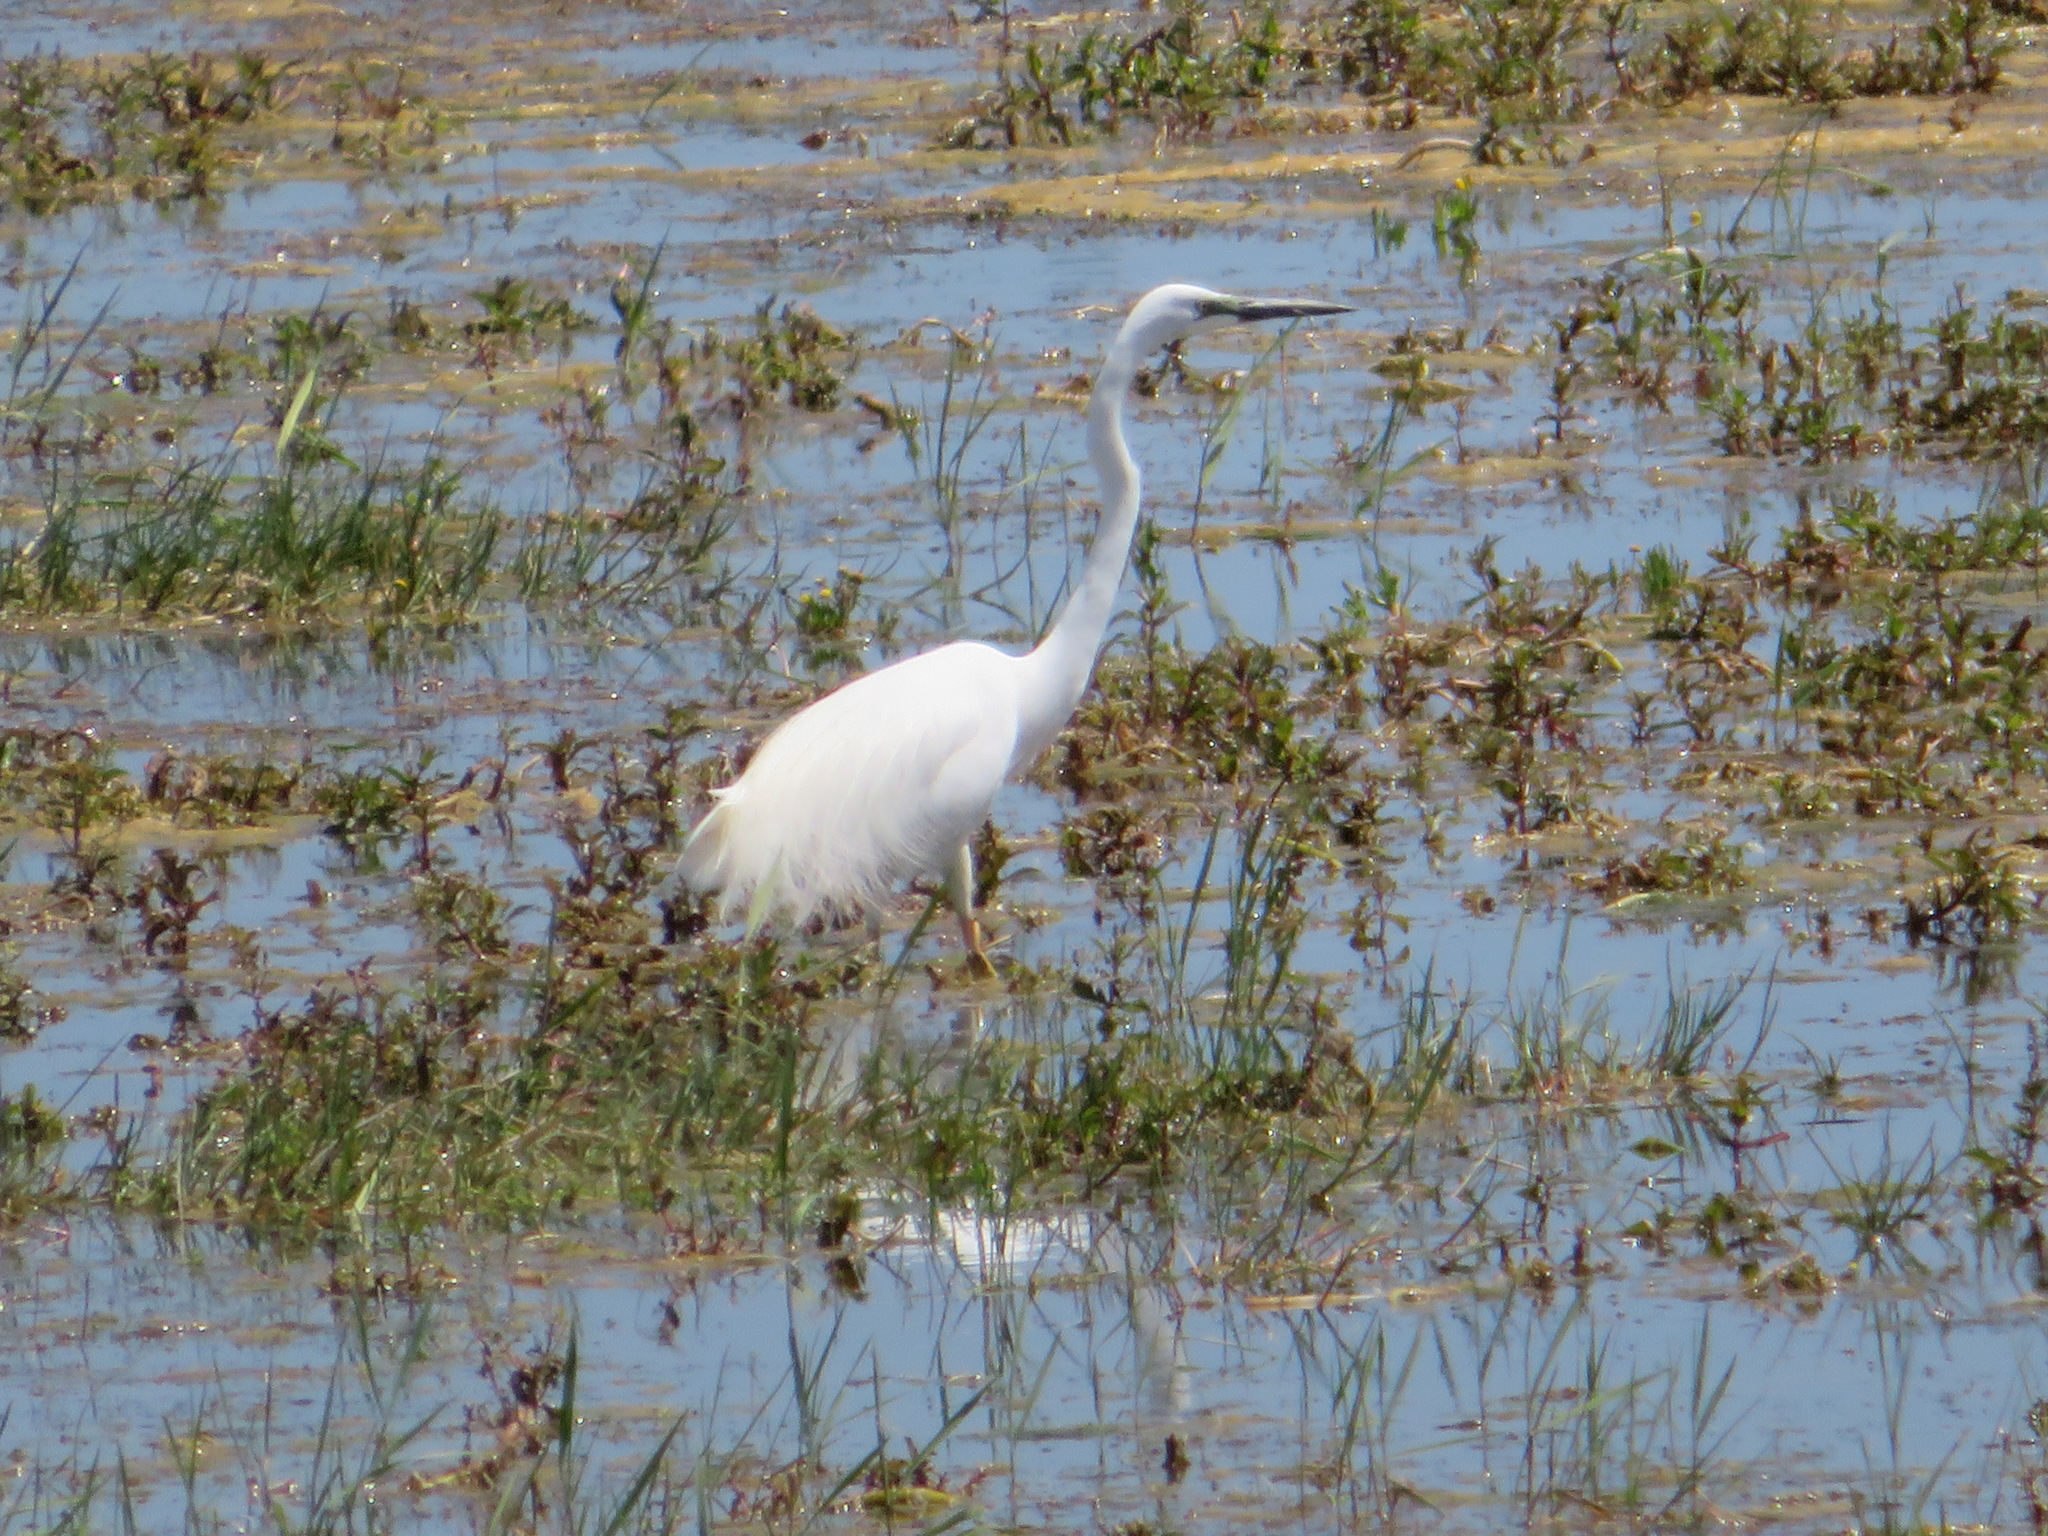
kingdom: Animalia
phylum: Chordata
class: Aves
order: Pelecaniformes
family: Ardeidae
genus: Ardea
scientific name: Ardea modesta
